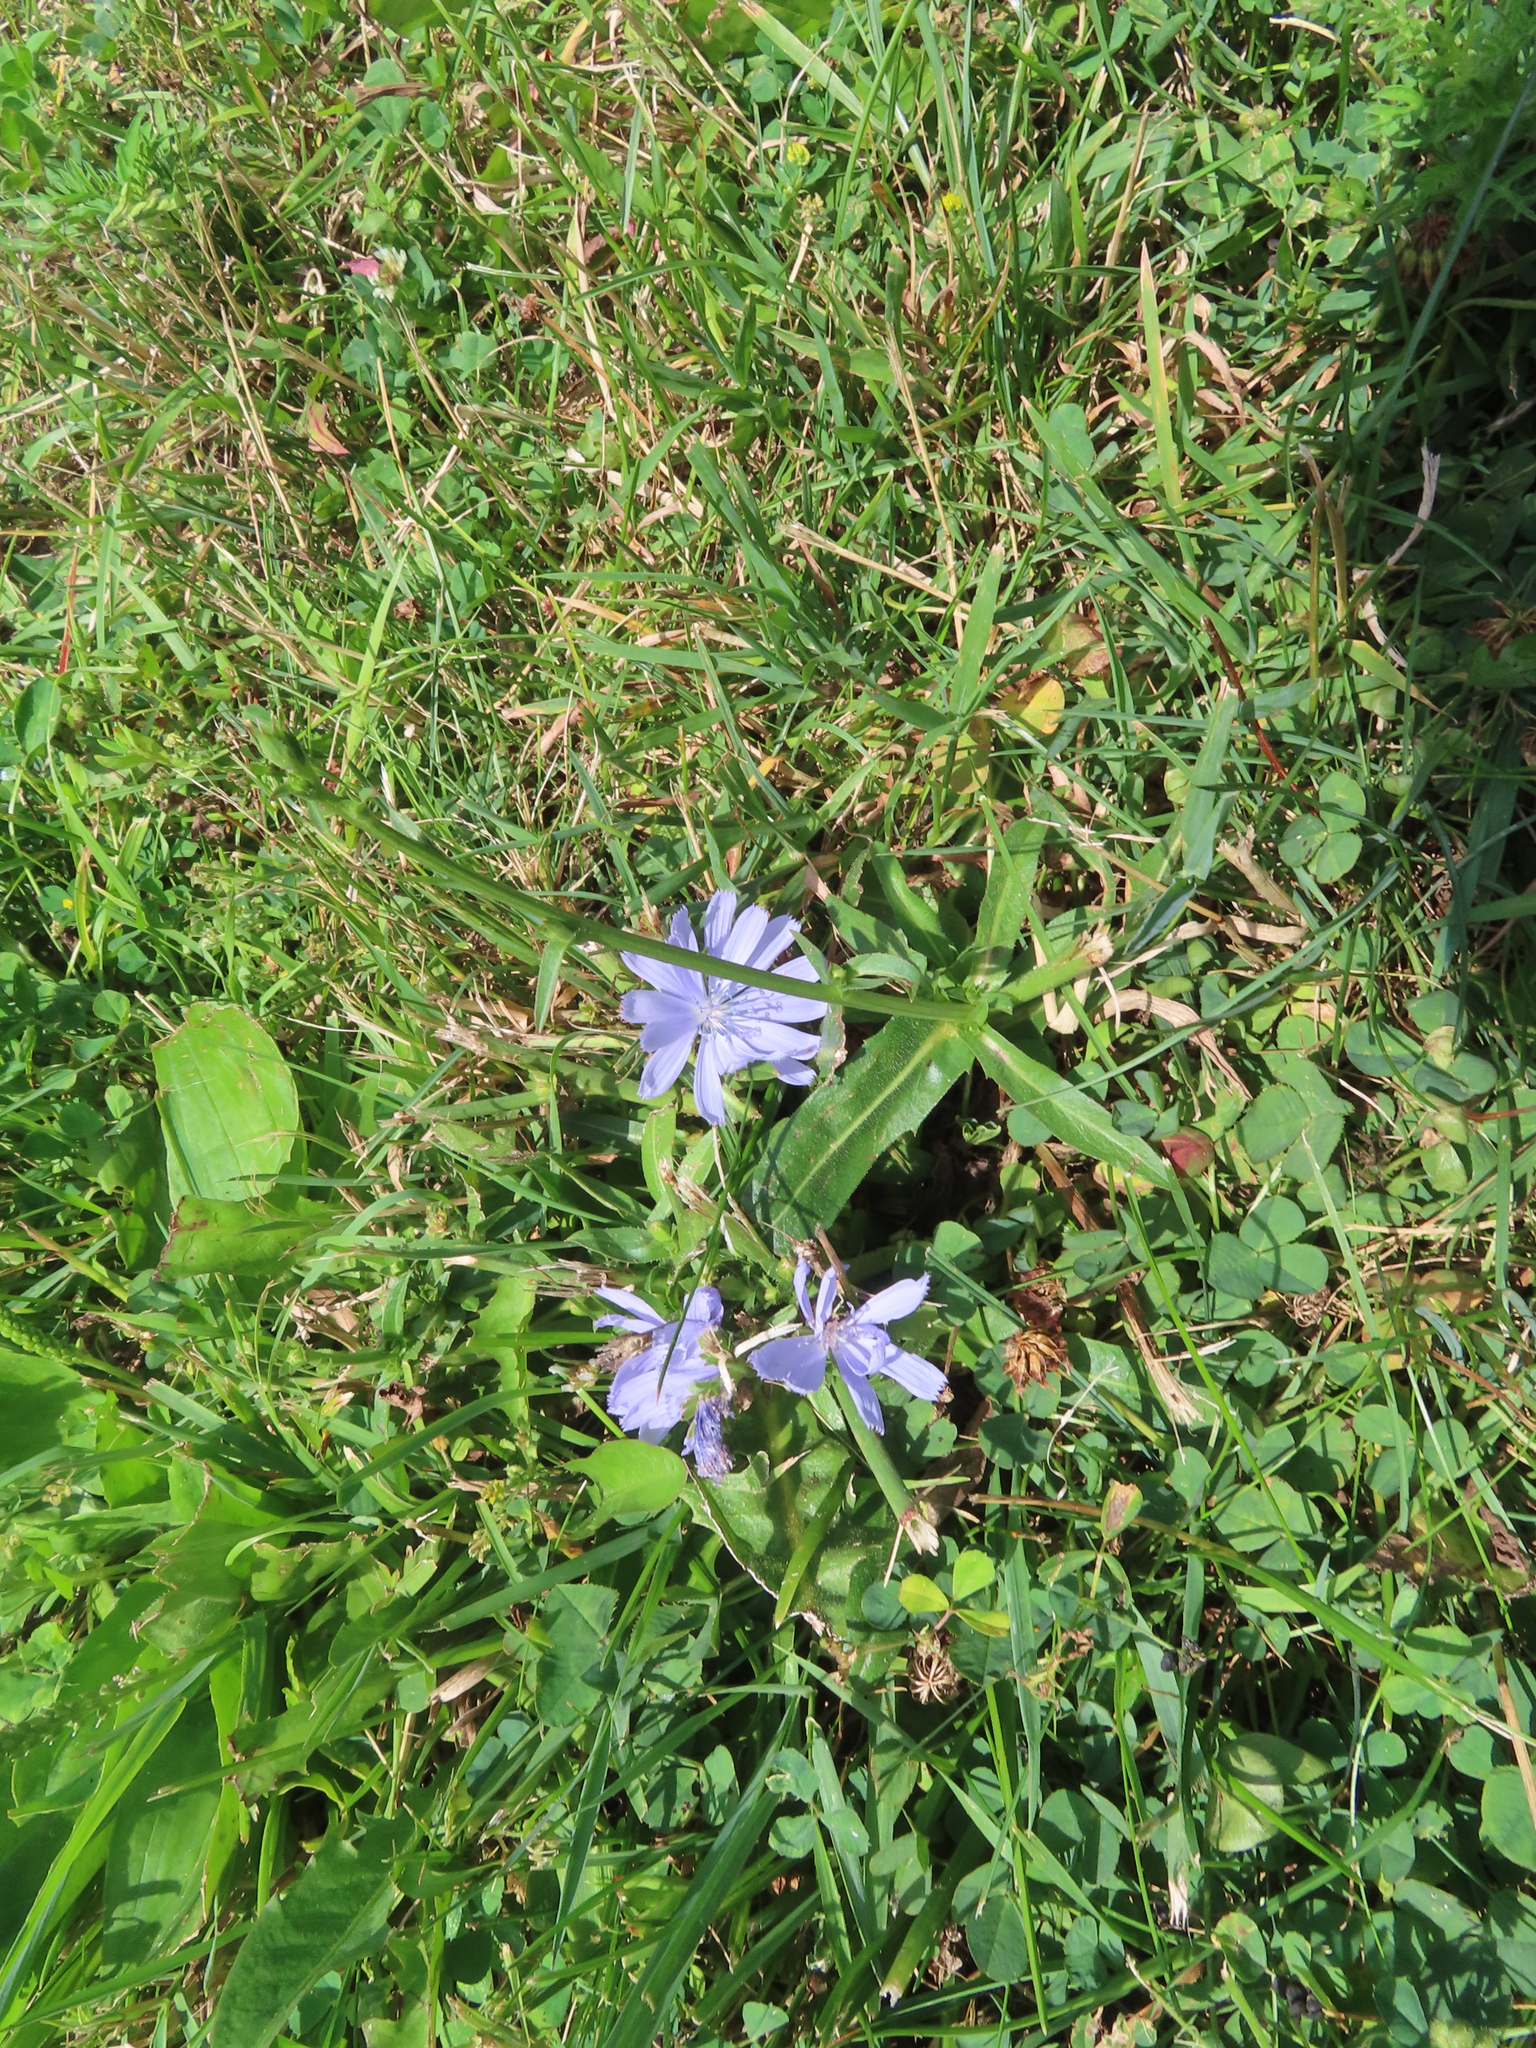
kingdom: Plantae
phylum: Tracheophyta
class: Magnoliopsida
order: Asterales
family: Asteraceae
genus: Cichorium
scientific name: Cichorium intybus
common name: Chicory
